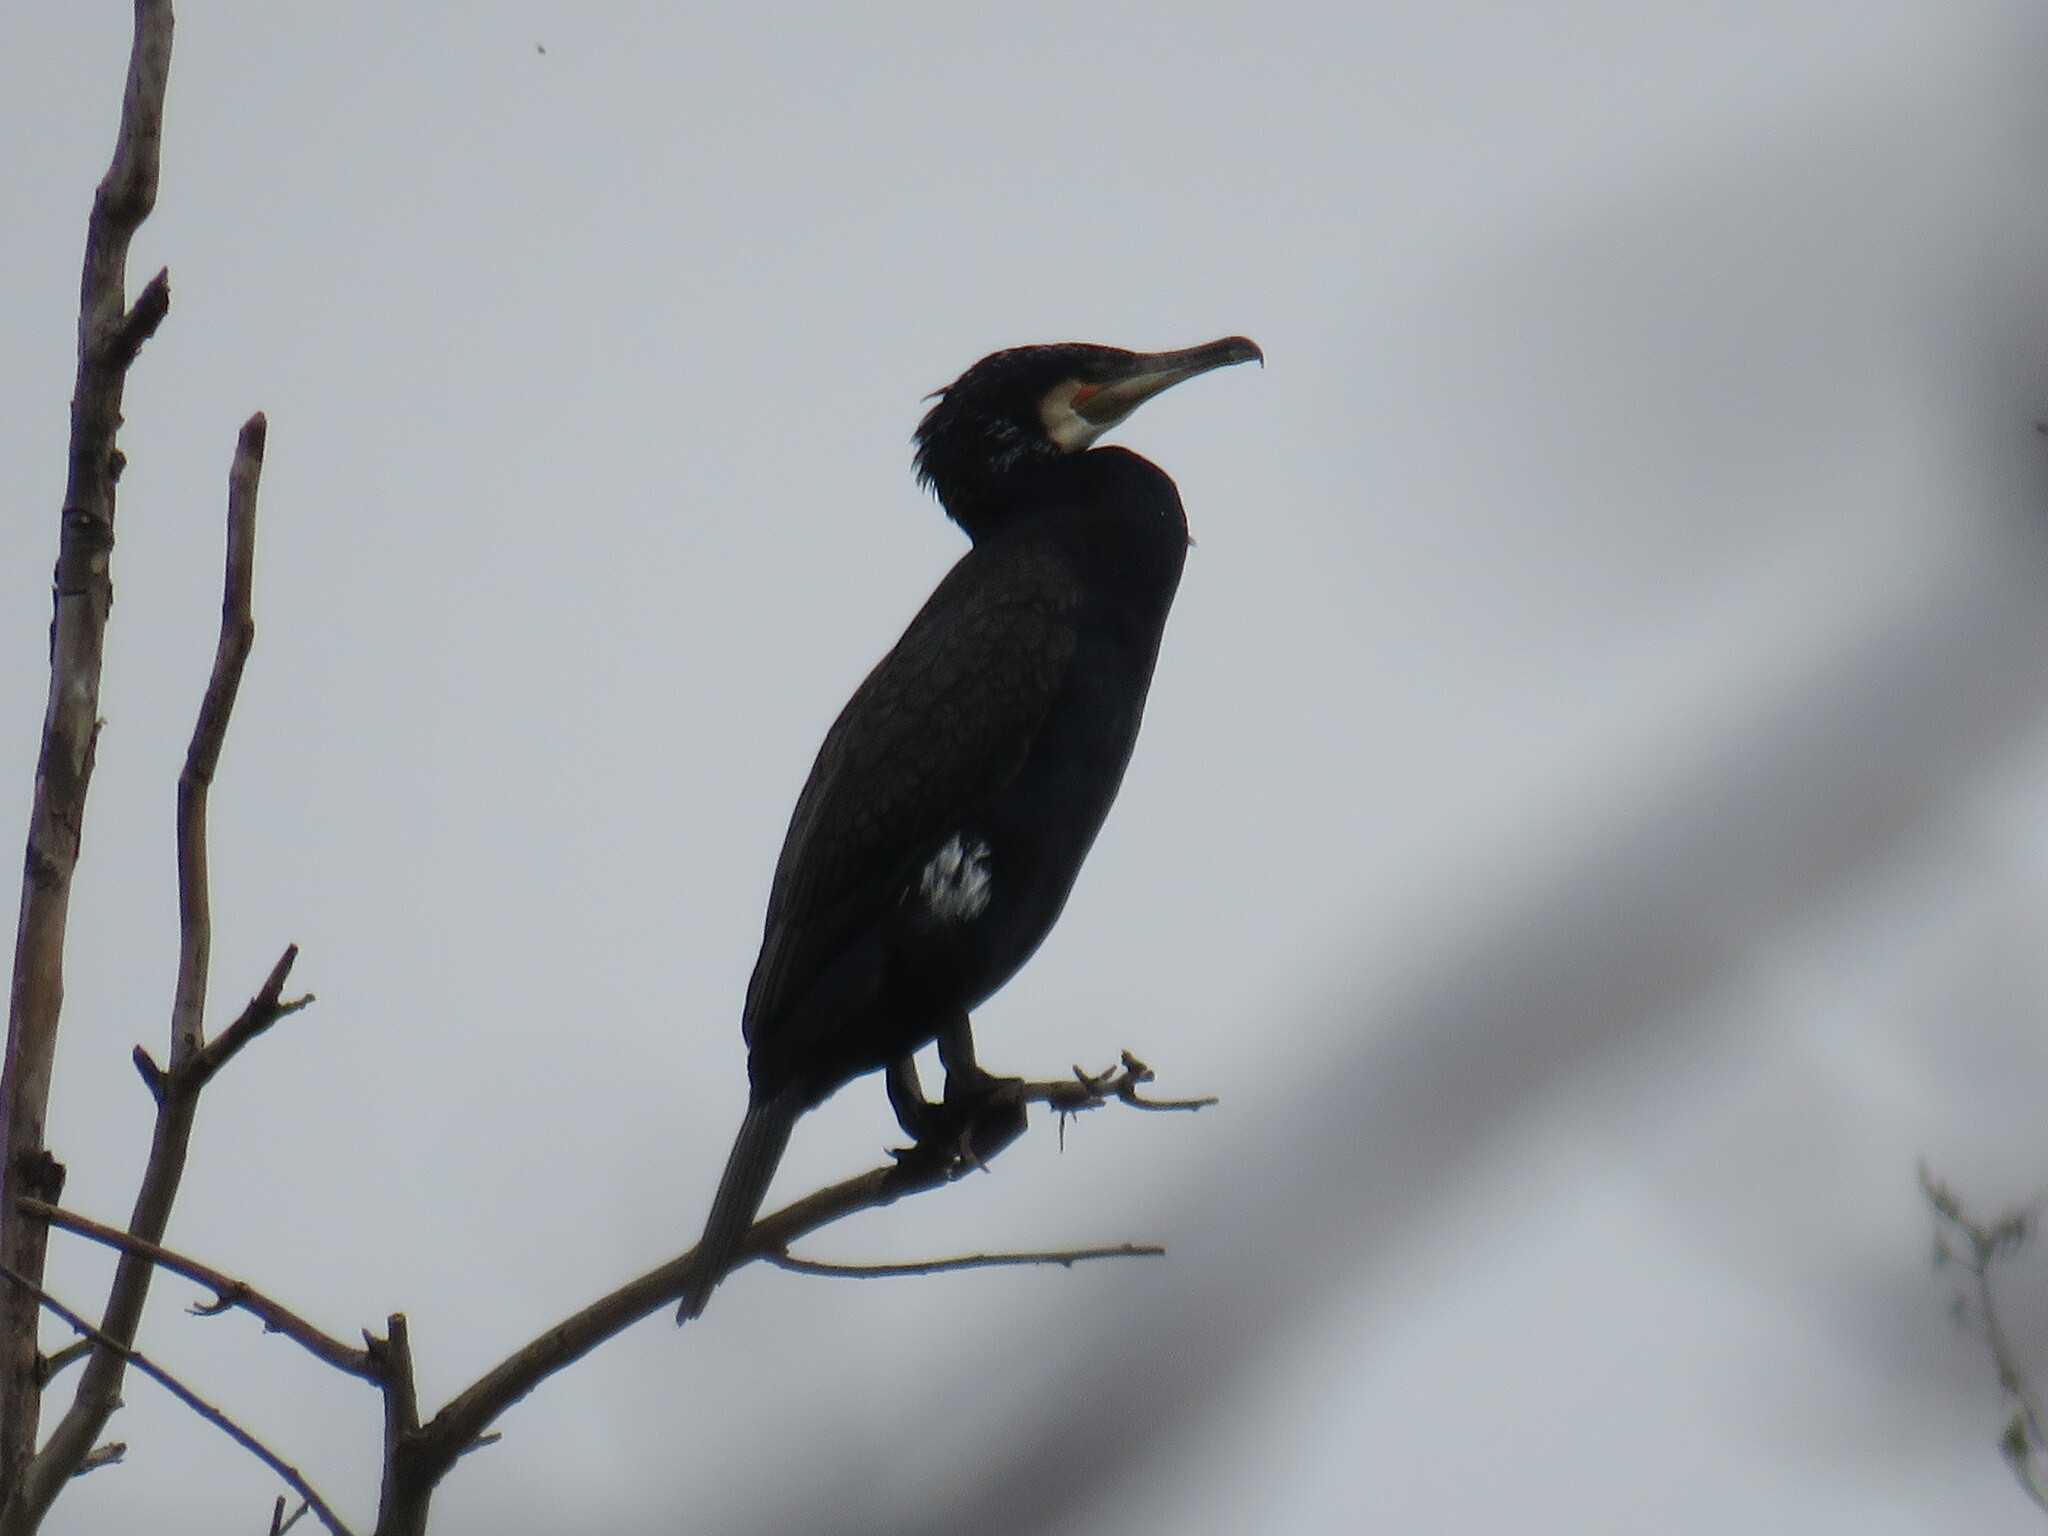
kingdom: Animalia
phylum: Chordata
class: Aves
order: Suliformes
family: Phalacrocoracidae
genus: Phalacrocorax
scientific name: Phalacrocorax carbo
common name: Great cormorant
